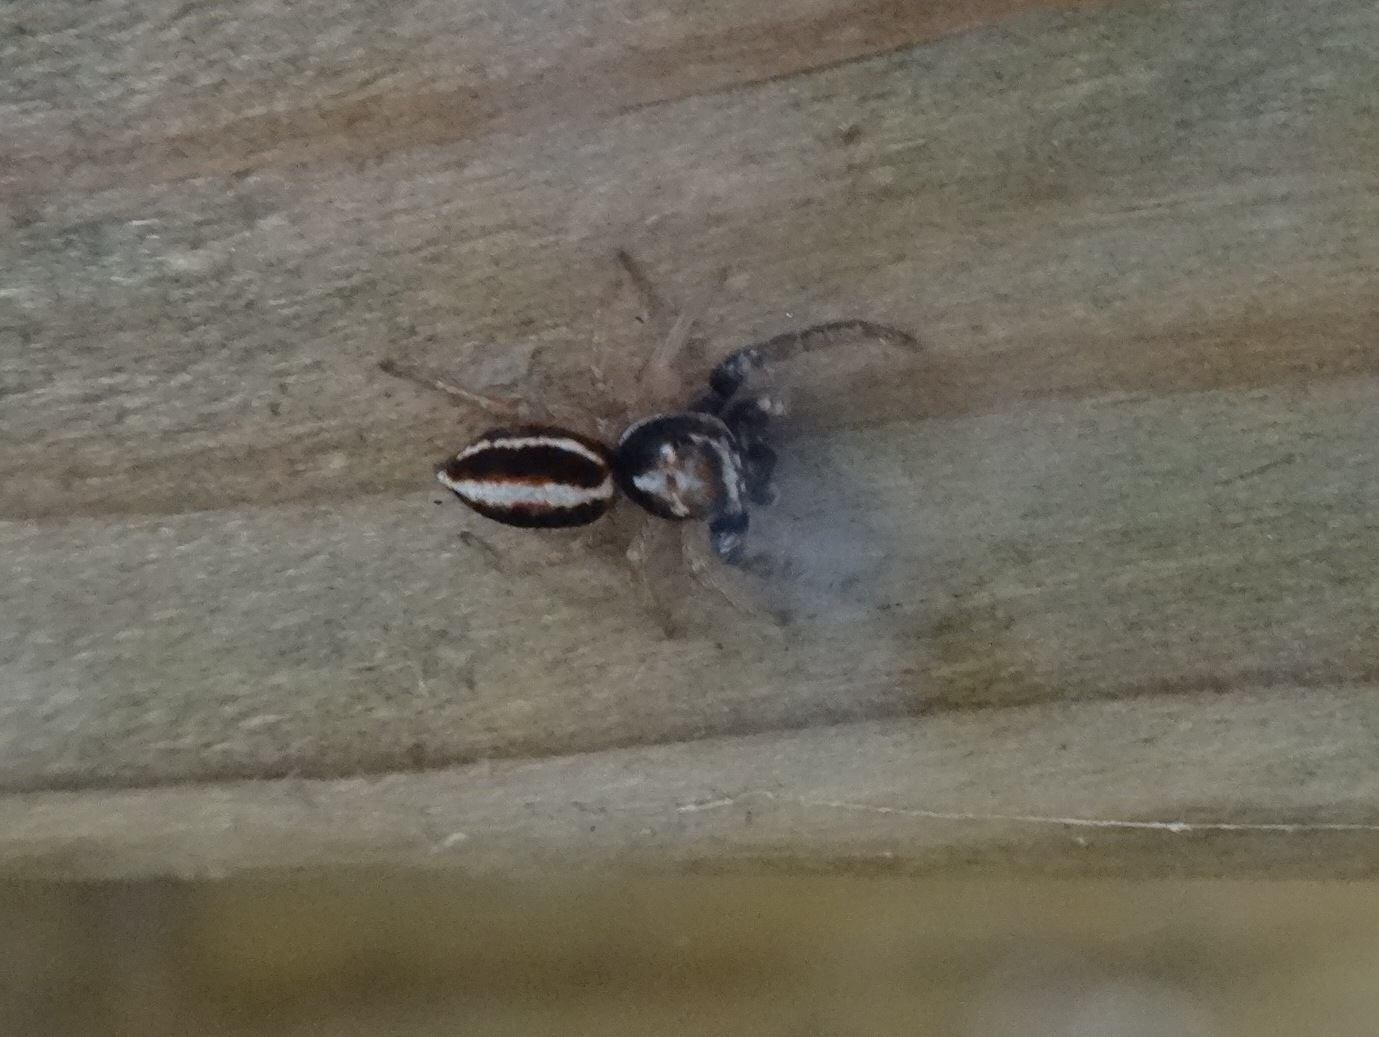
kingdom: Animalia
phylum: Arthropoda
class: Arachnida
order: Araneae
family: Salticidae
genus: Icius
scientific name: Icius subinermis
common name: Jumping spider
